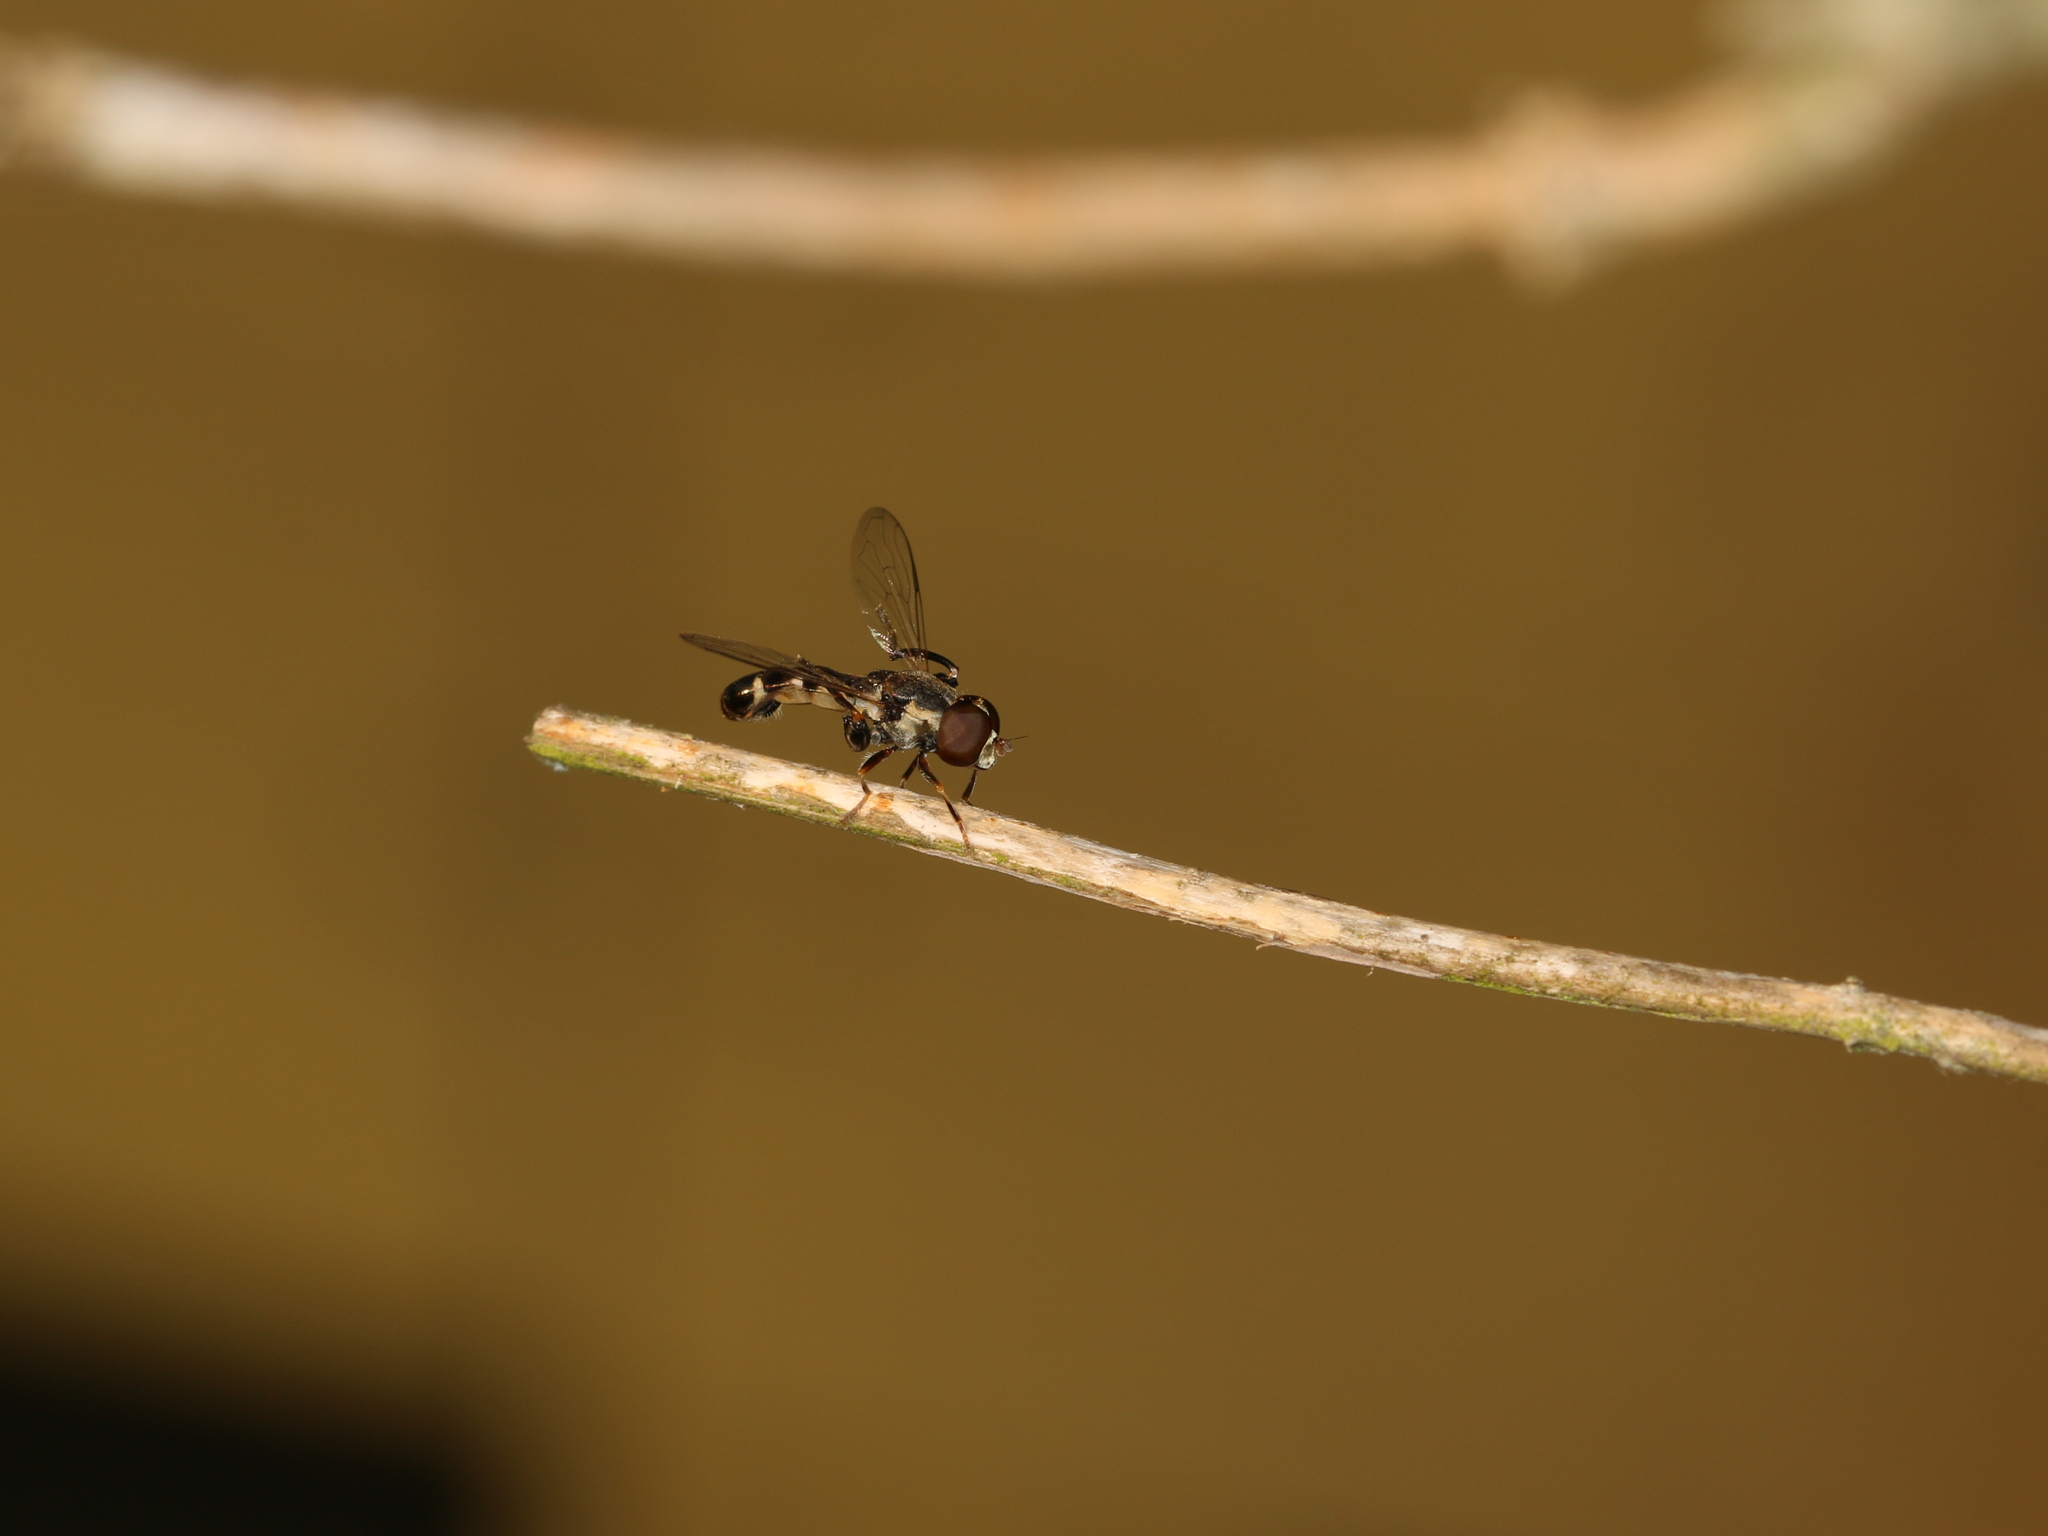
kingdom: Animalia
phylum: Arthropoda
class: Insecta
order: Diptera
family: Syrphidae
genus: Syritta
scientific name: Syritta pipiens
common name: Hover fly
